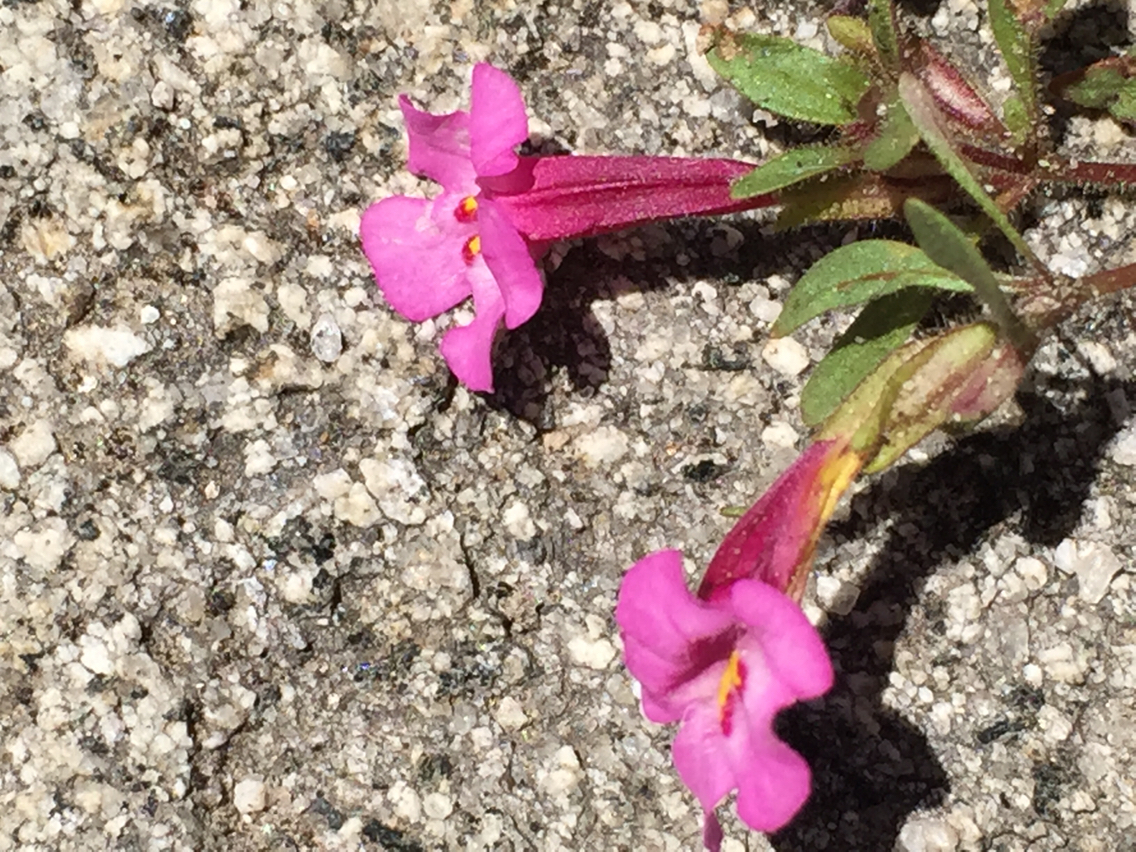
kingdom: Plantae
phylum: Tracheophyta
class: Magnoliopsida
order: Lamiales
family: Phrymaceae
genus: Diplacus
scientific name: Diplacus torreyi
